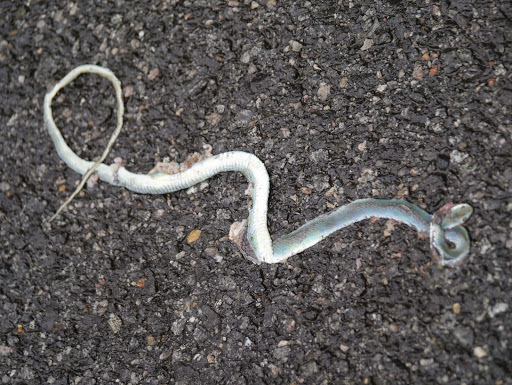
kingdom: Animalia
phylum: Chordata
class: Squamata
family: Colubridae
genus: Opheodrys
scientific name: Opheodrys aestivus
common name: Rough greensnake
